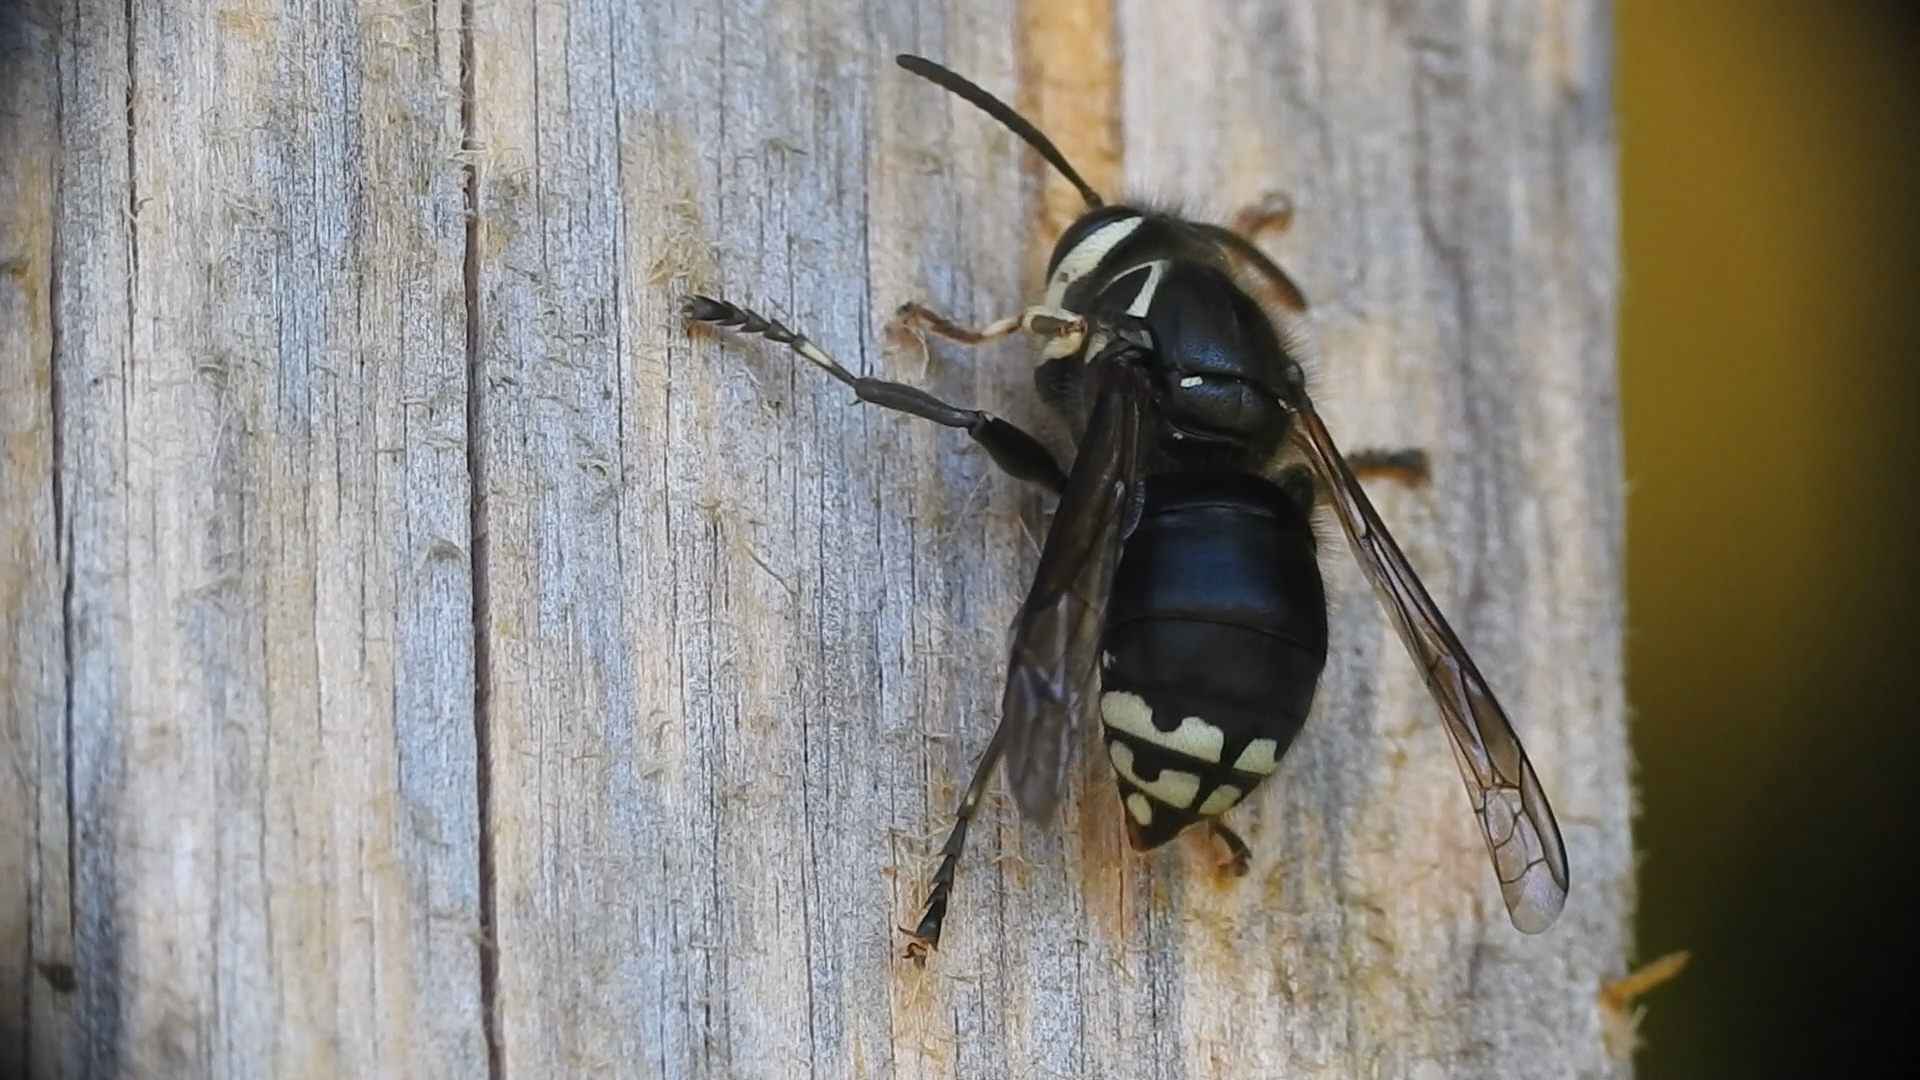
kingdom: Animalia
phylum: Arthropoda
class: Insecta
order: Hymenoptera
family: Vespidae
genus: Dolichovespula
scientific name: Dolichovespula maculata
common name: Bald-faced hornet
